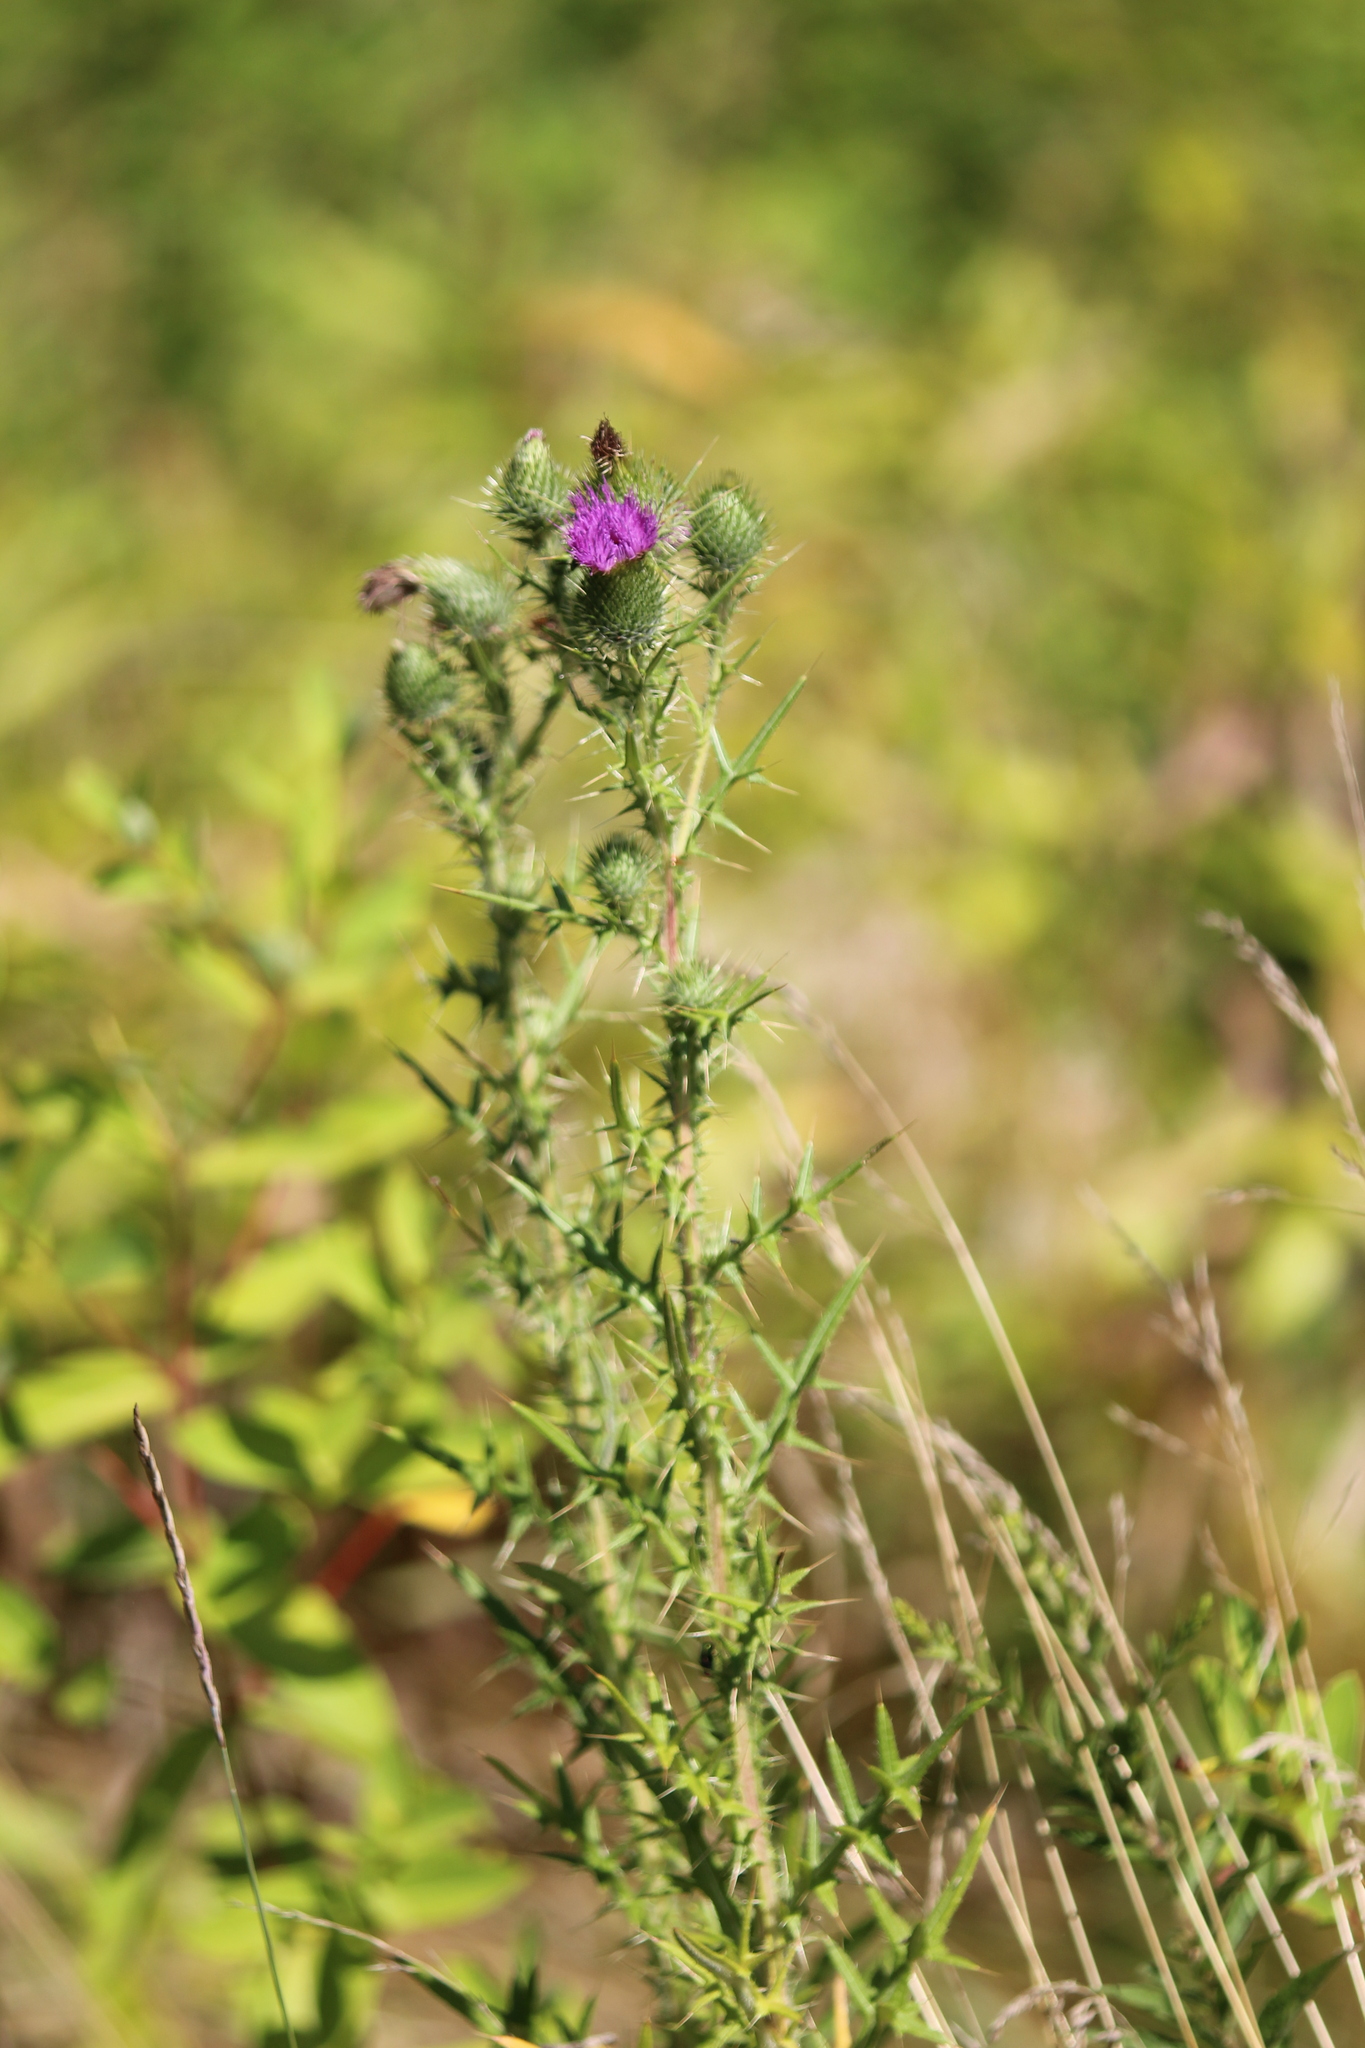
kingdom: Plantae
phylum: Tracheophyta
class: Magnoliopsida
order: Asterales
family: Asteraceae
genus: Cirsium
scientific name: Cirsium vulgare
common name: Bull thistle
